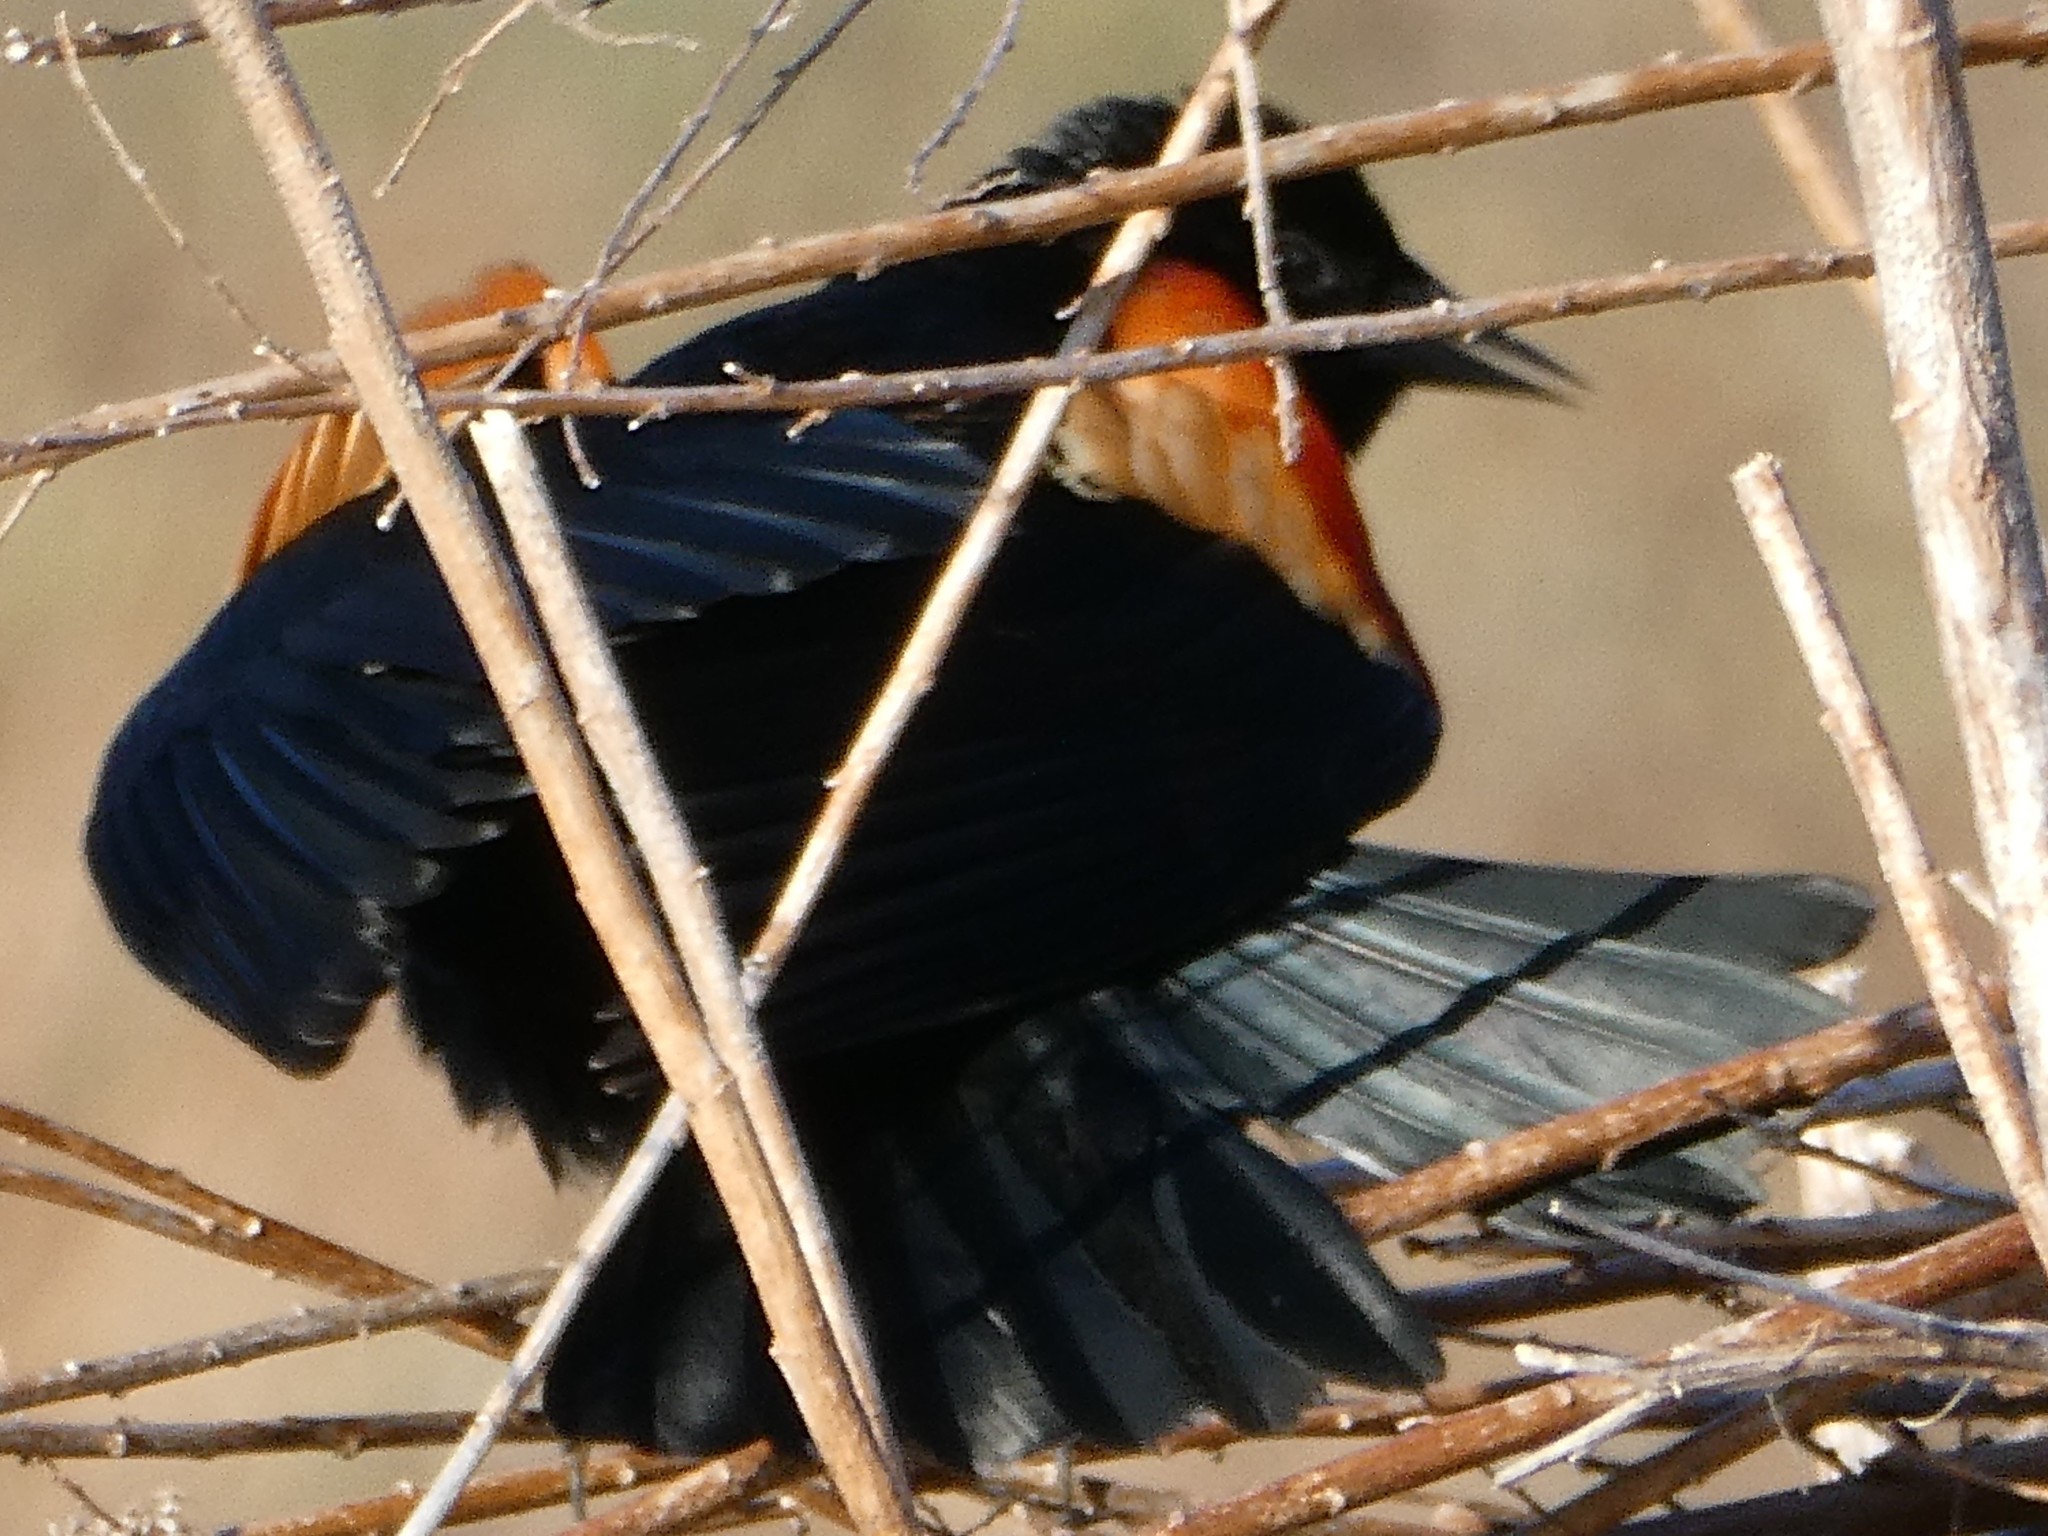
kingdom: Animalia
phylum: Chordata
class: Aves
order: Passeriformes
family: Icteridae
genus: Agelaius
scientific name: Agelaius phoeniceus
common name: Red-winged blackbird
